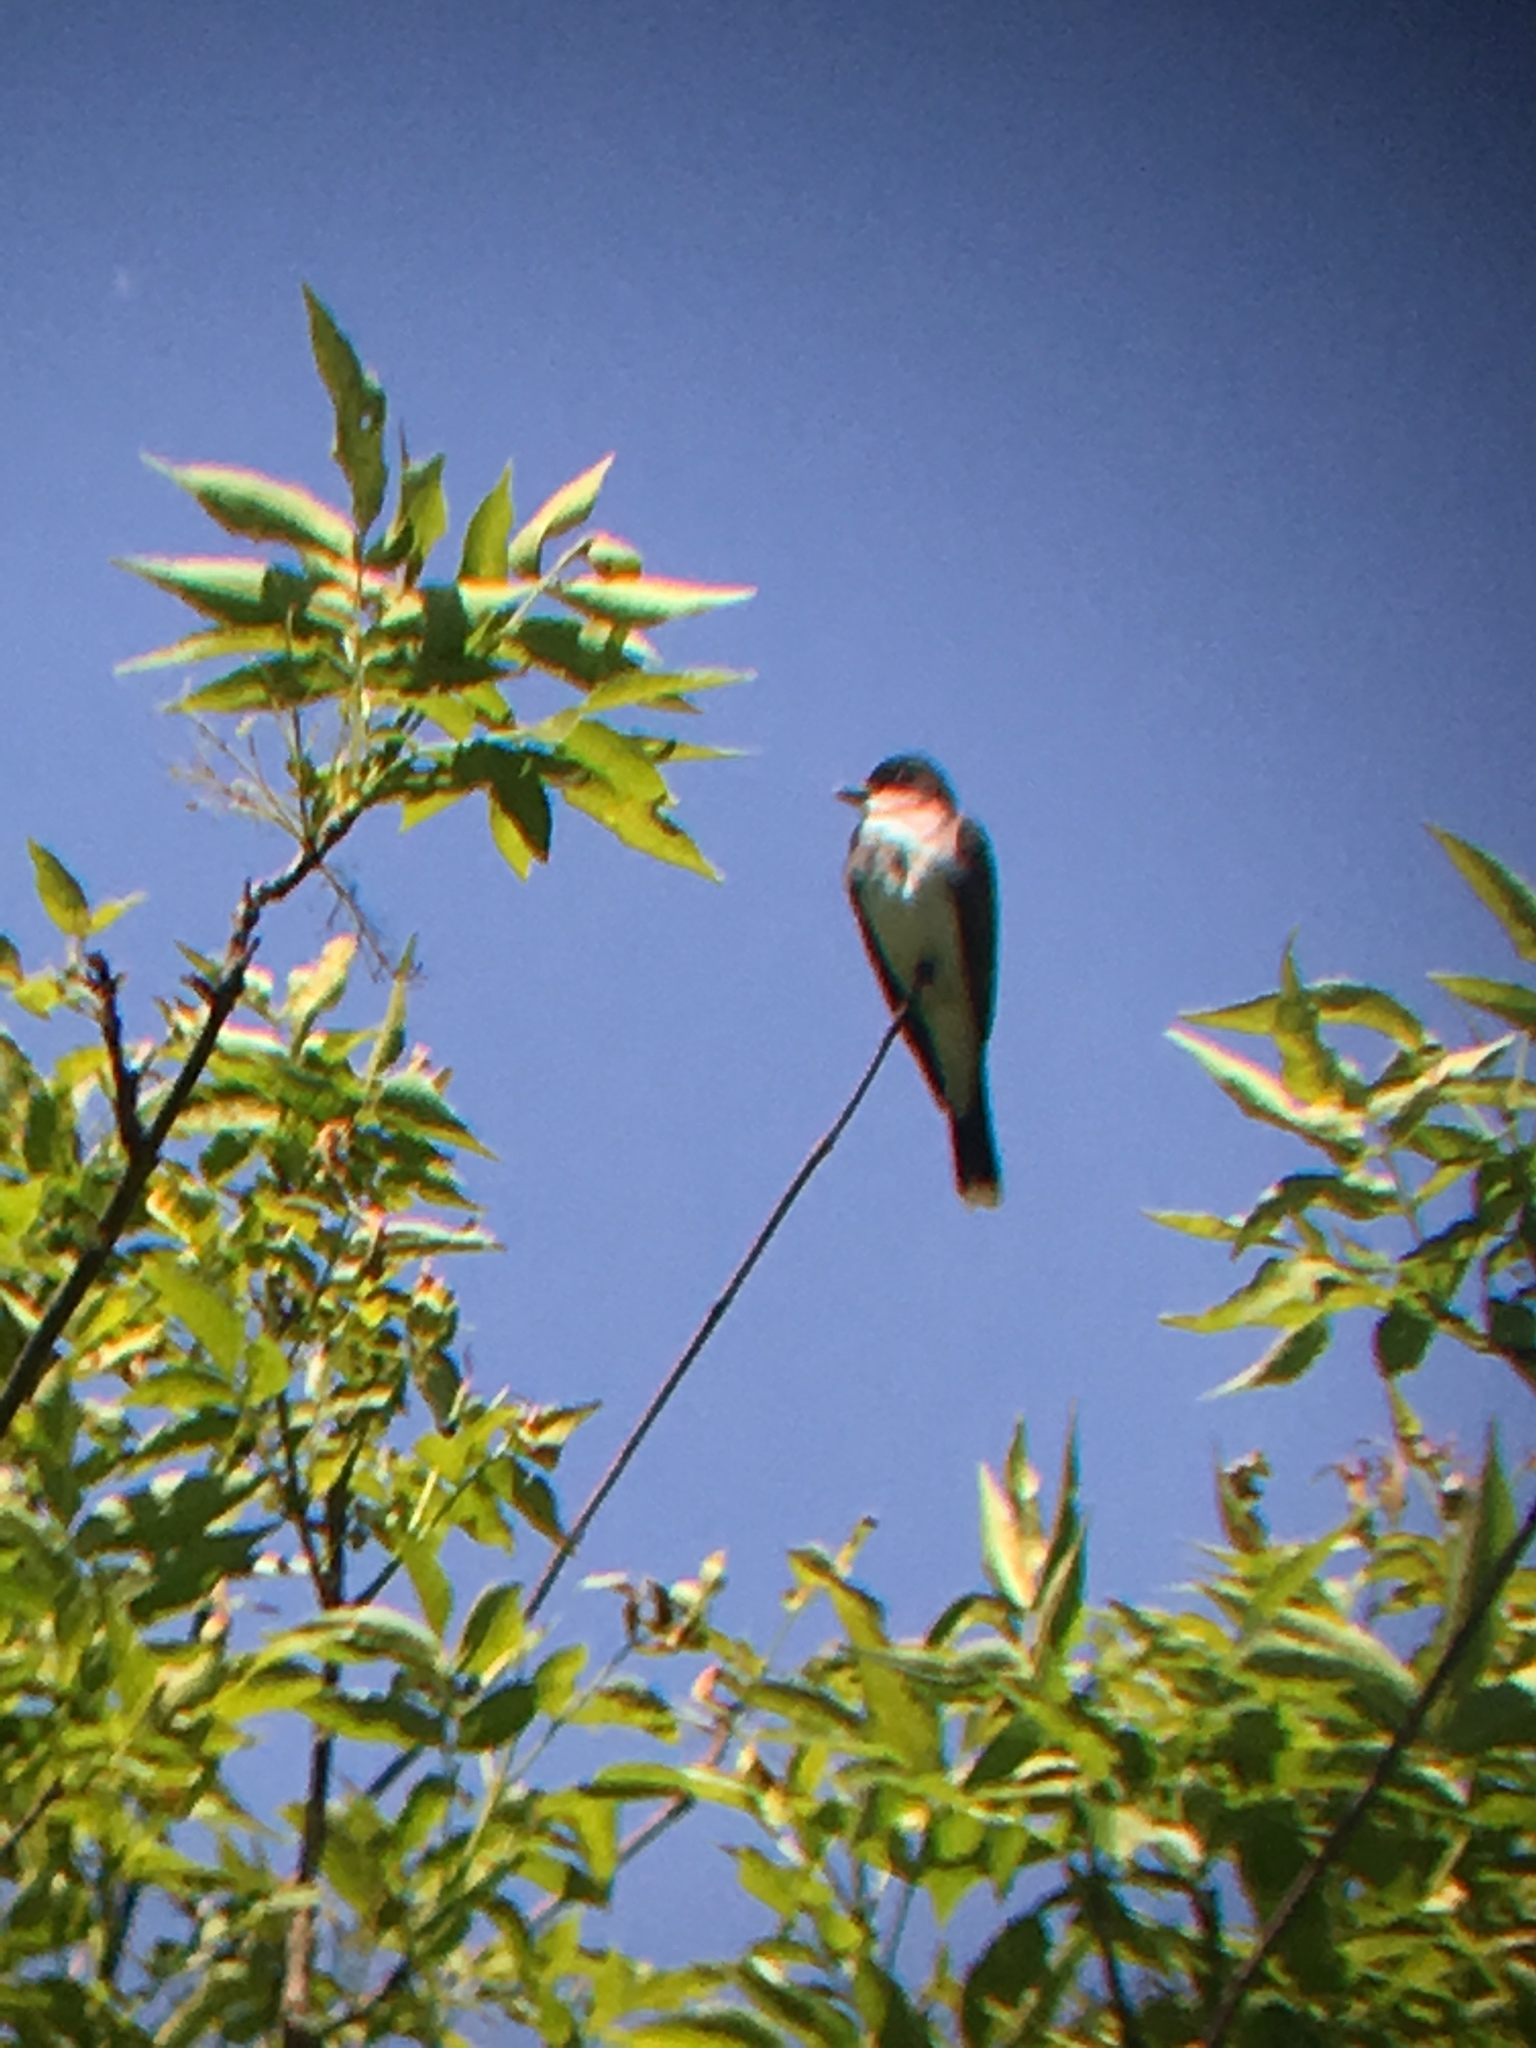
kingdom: Animalia
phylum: Chordata
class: Aves
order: Passeriformes
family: Tyrannidae
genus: Tyrannus
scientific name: Tyrannus tyrannus
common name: Eastern kingbird
